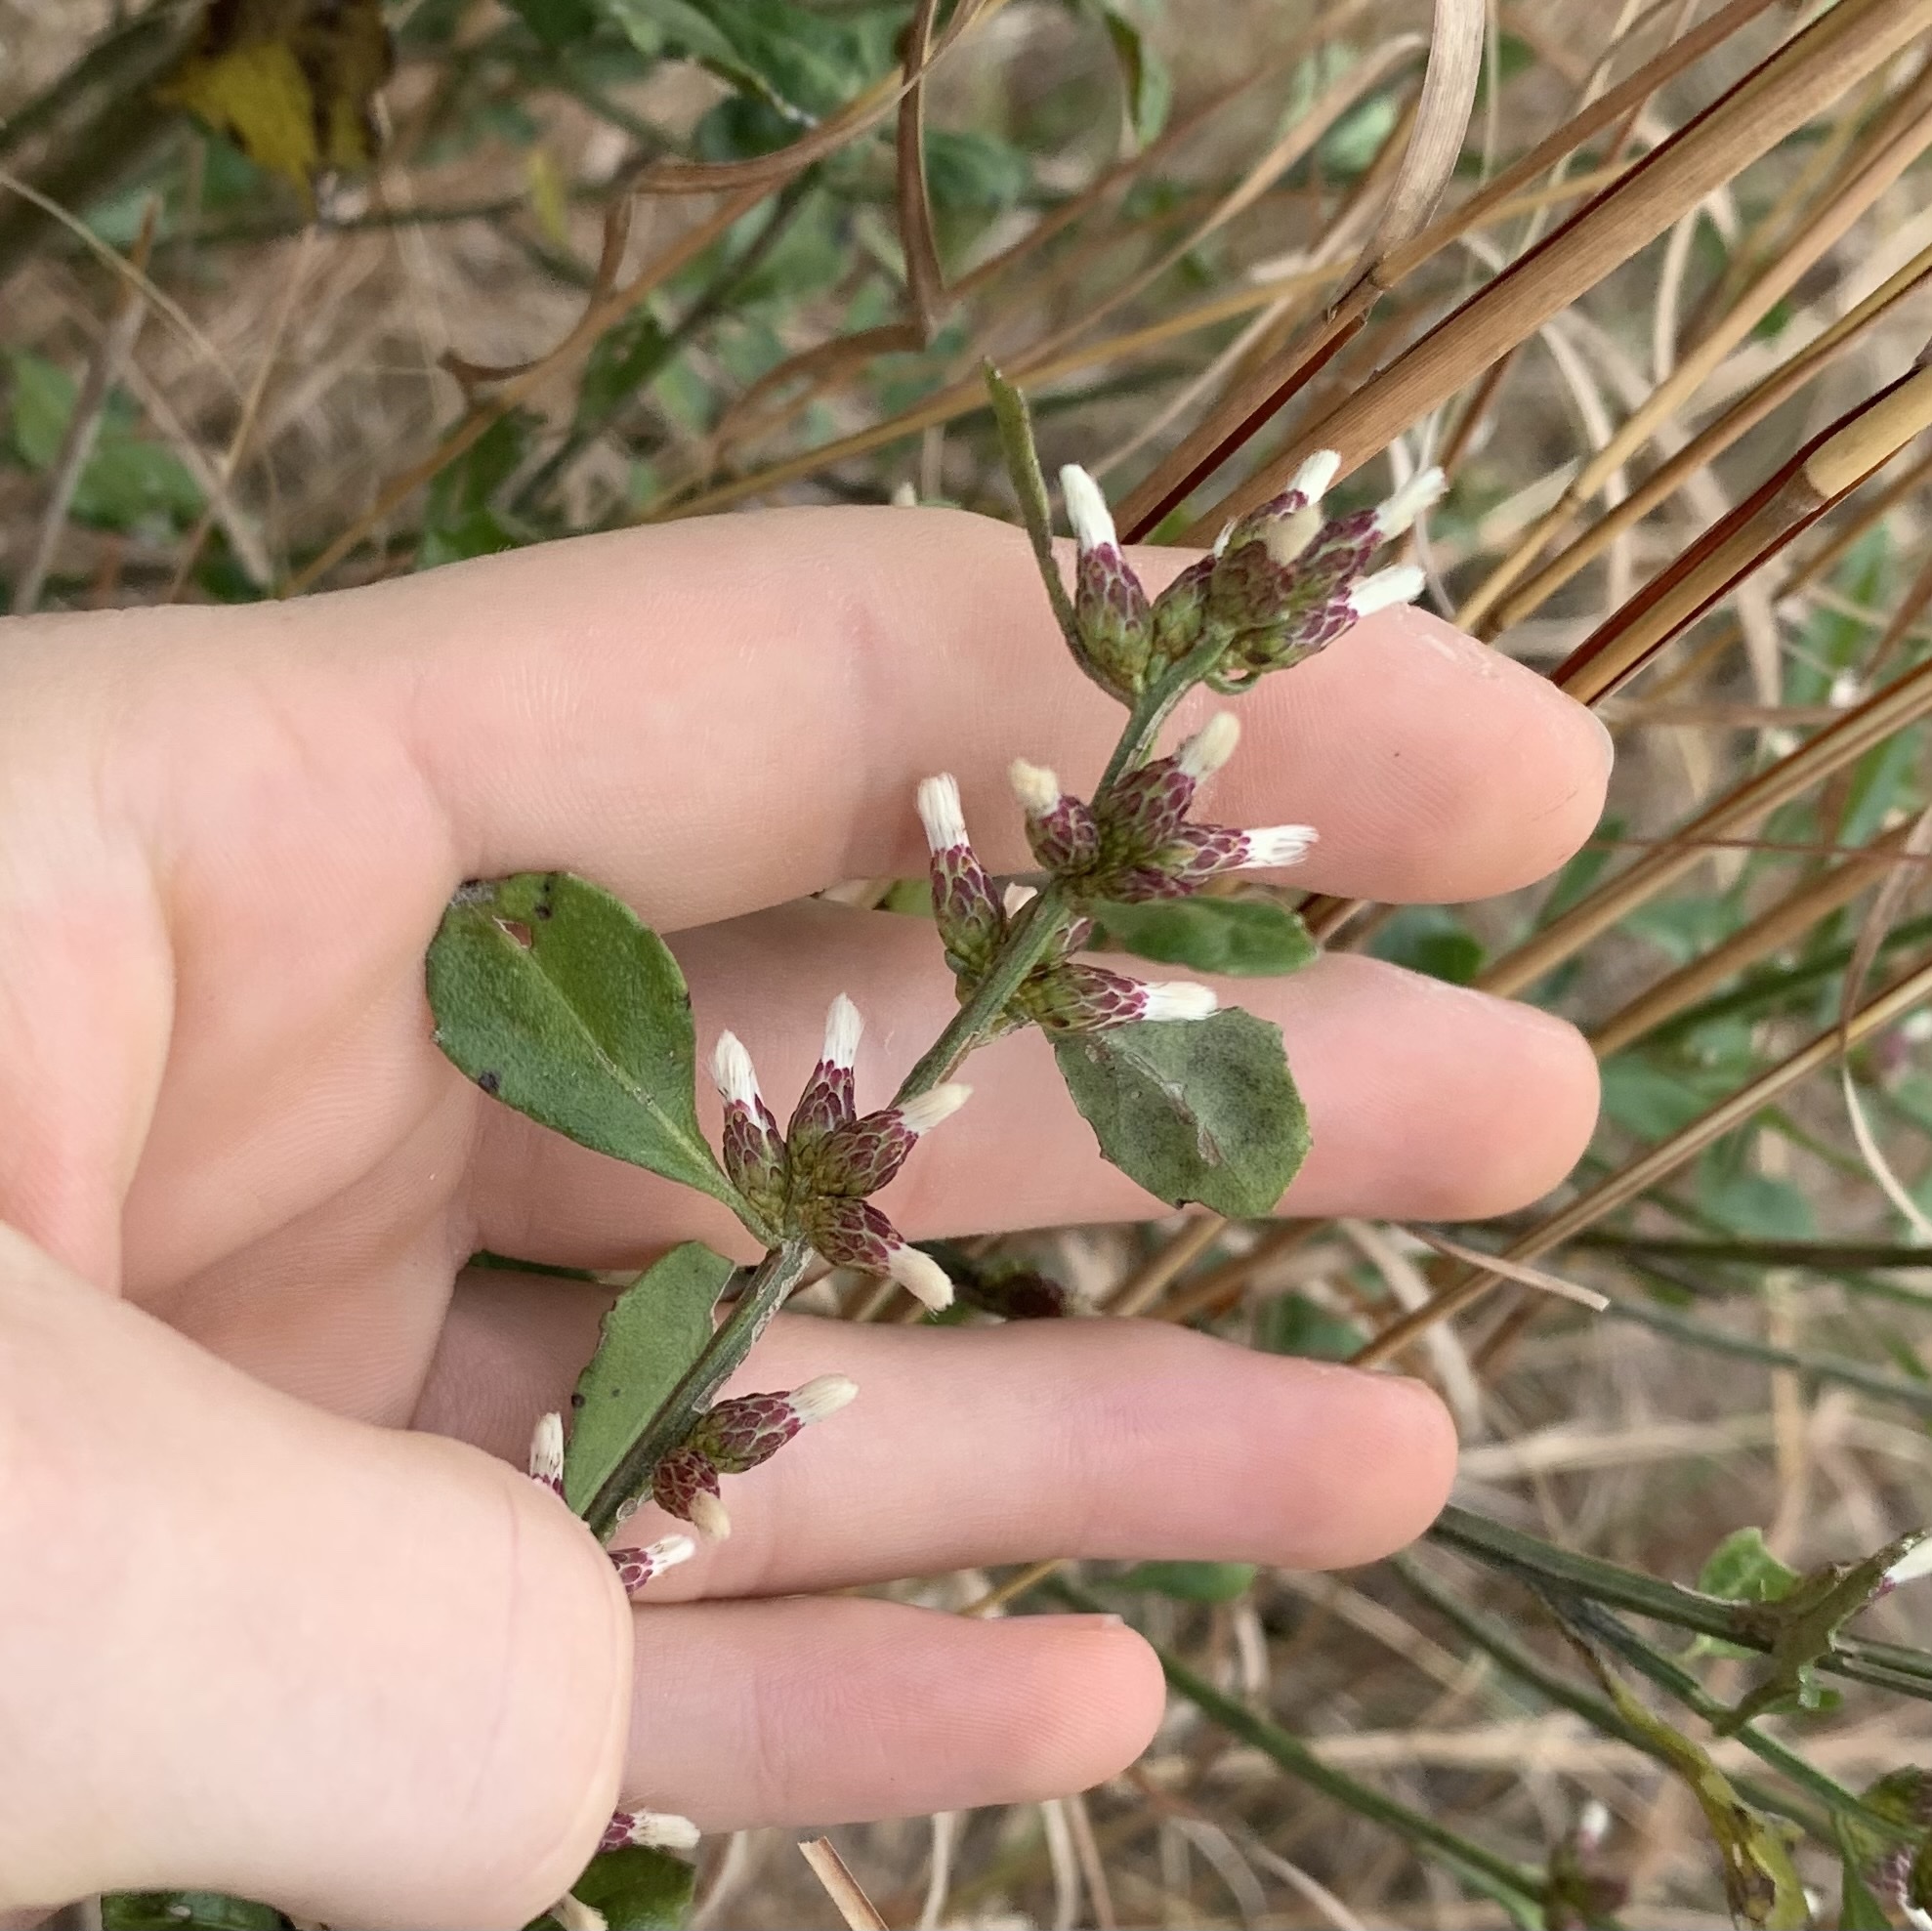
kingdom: Plantae
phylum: Tracheophyta
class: Magnoliopsida
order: Asterales
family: Asteraceae
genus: Baccharis
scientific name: Baccharis glomeruliflora
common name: Silverling groundsel bush
